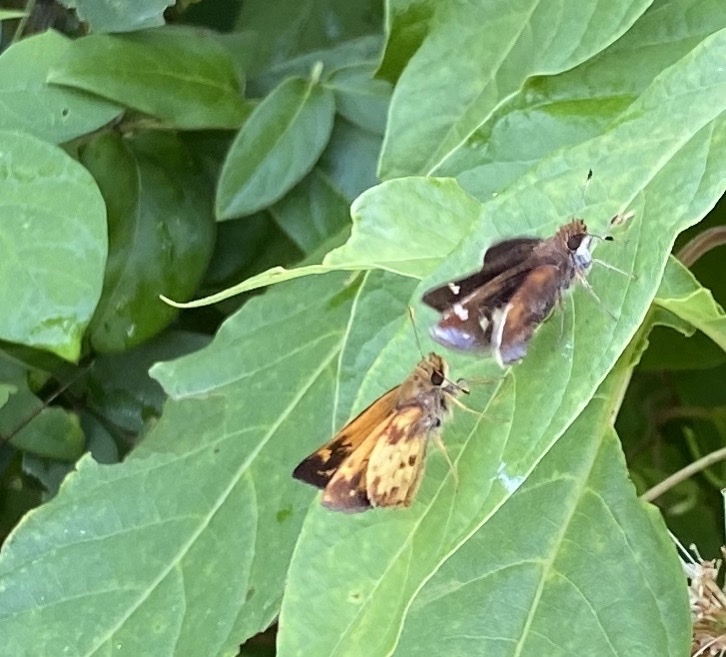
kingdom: Animalia
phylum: Arthropoda
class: Insecta
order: Lepidoptera
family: Hesperiidae
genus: Lon
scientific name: Lon zabulon
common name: Zabulon skipper
